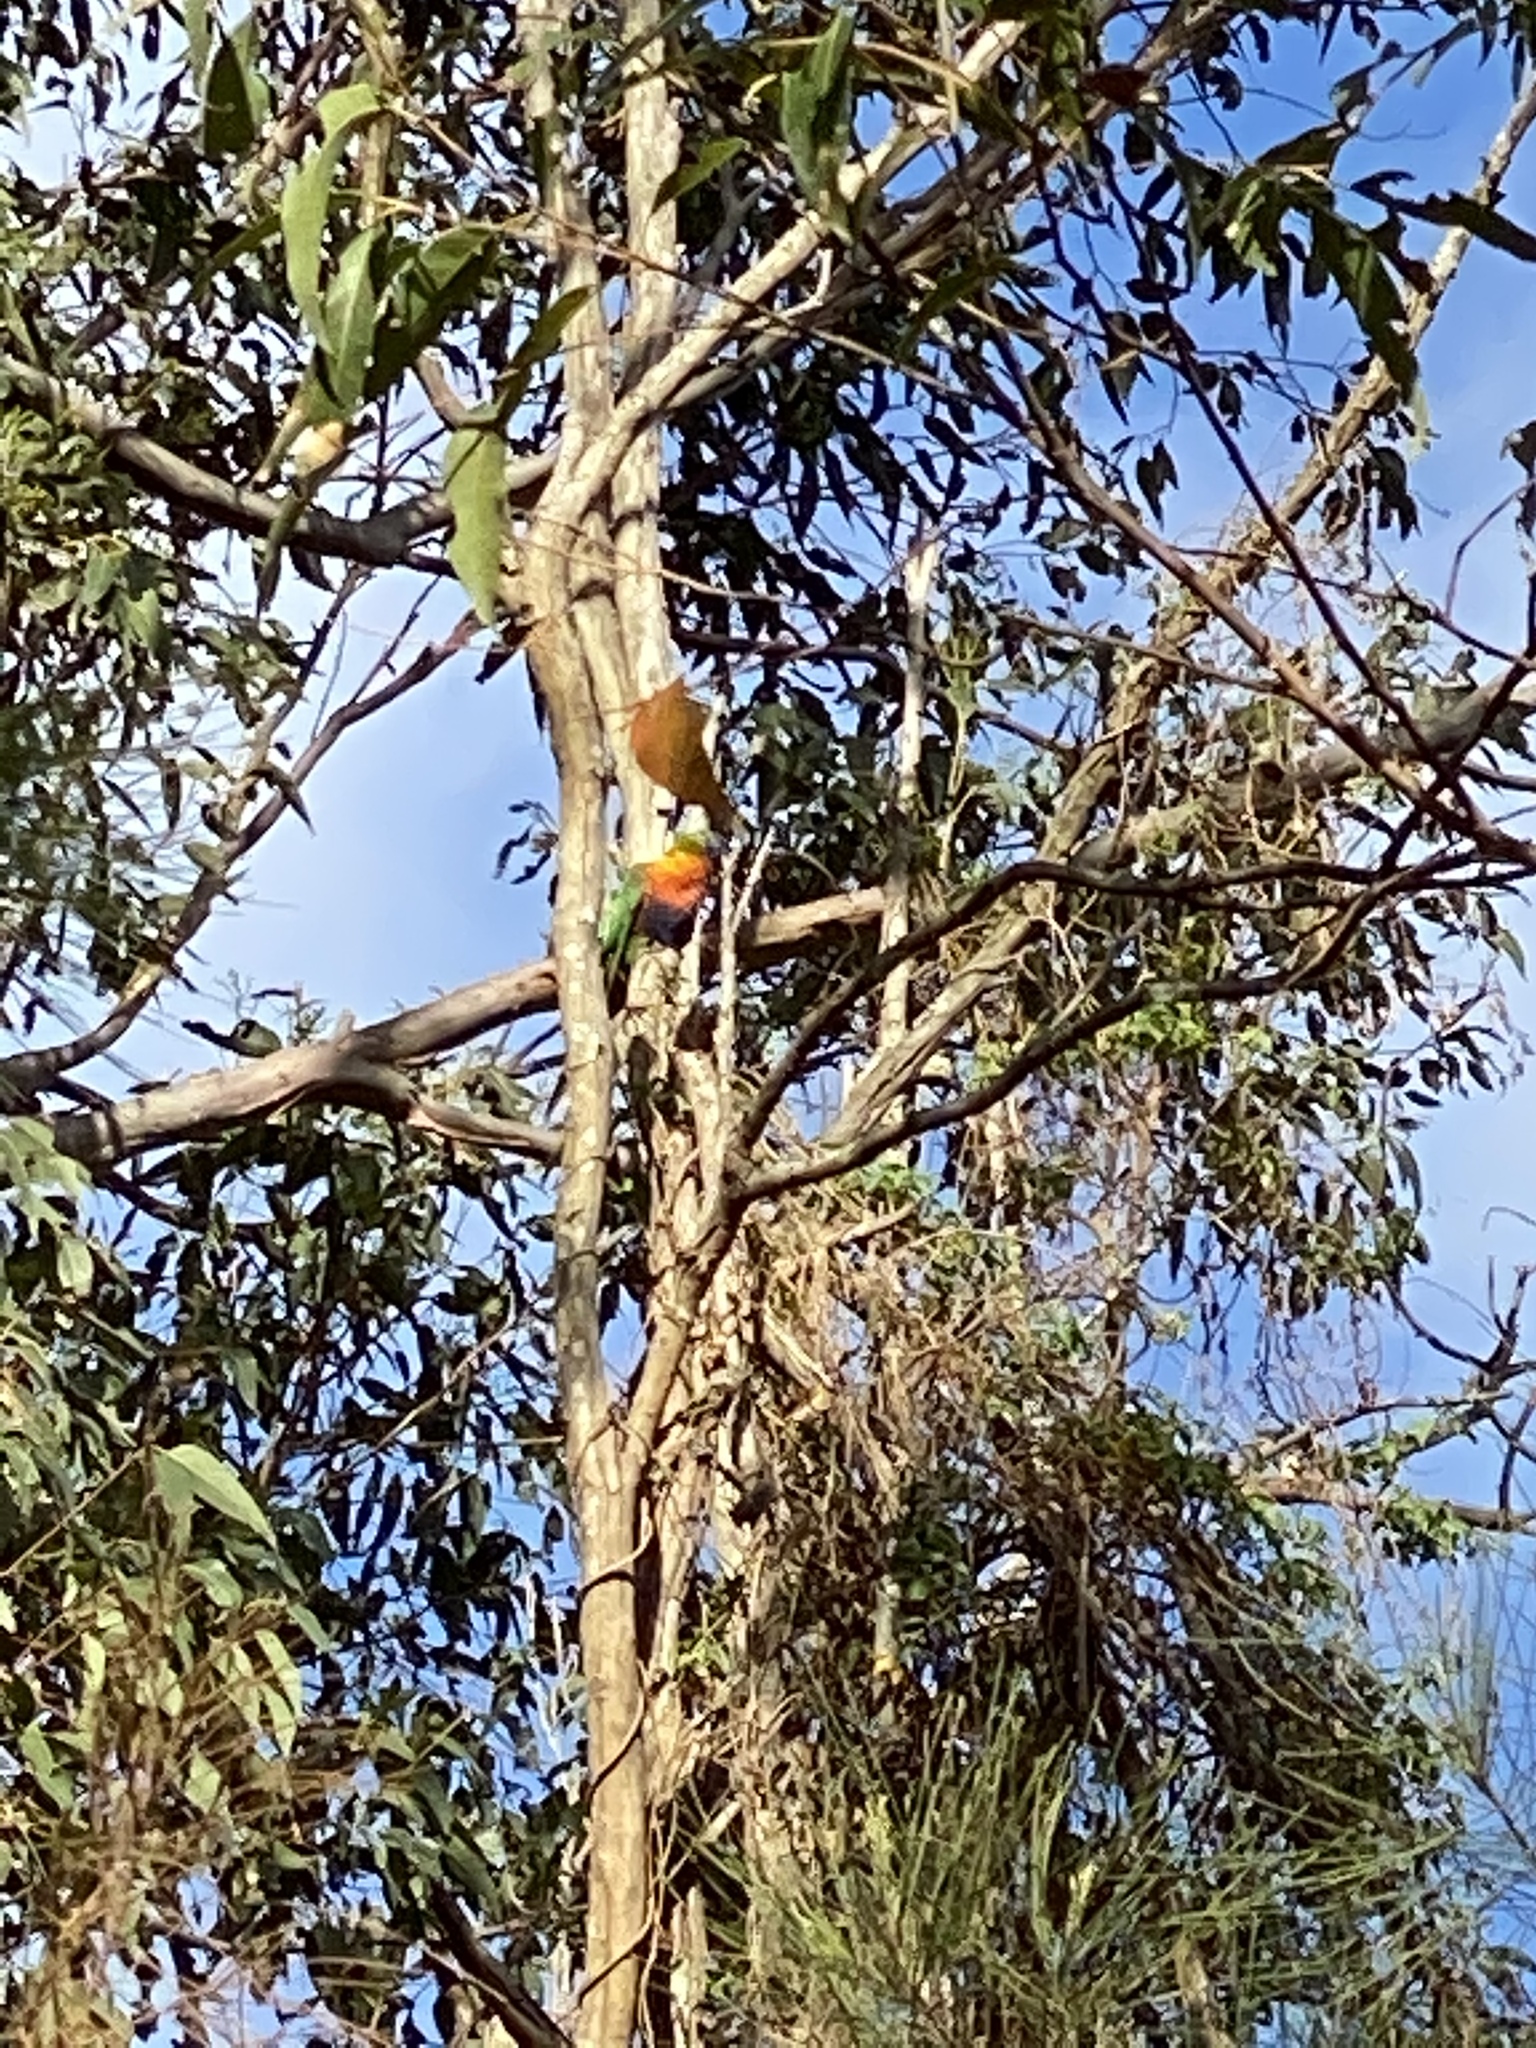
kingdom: Animalia
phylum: Chordata
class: Aves
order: Psittaciformes
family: Psittacidae
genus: Trichoglossus
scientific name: Trichoglossus haematodus
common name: Coconut lorikeet
